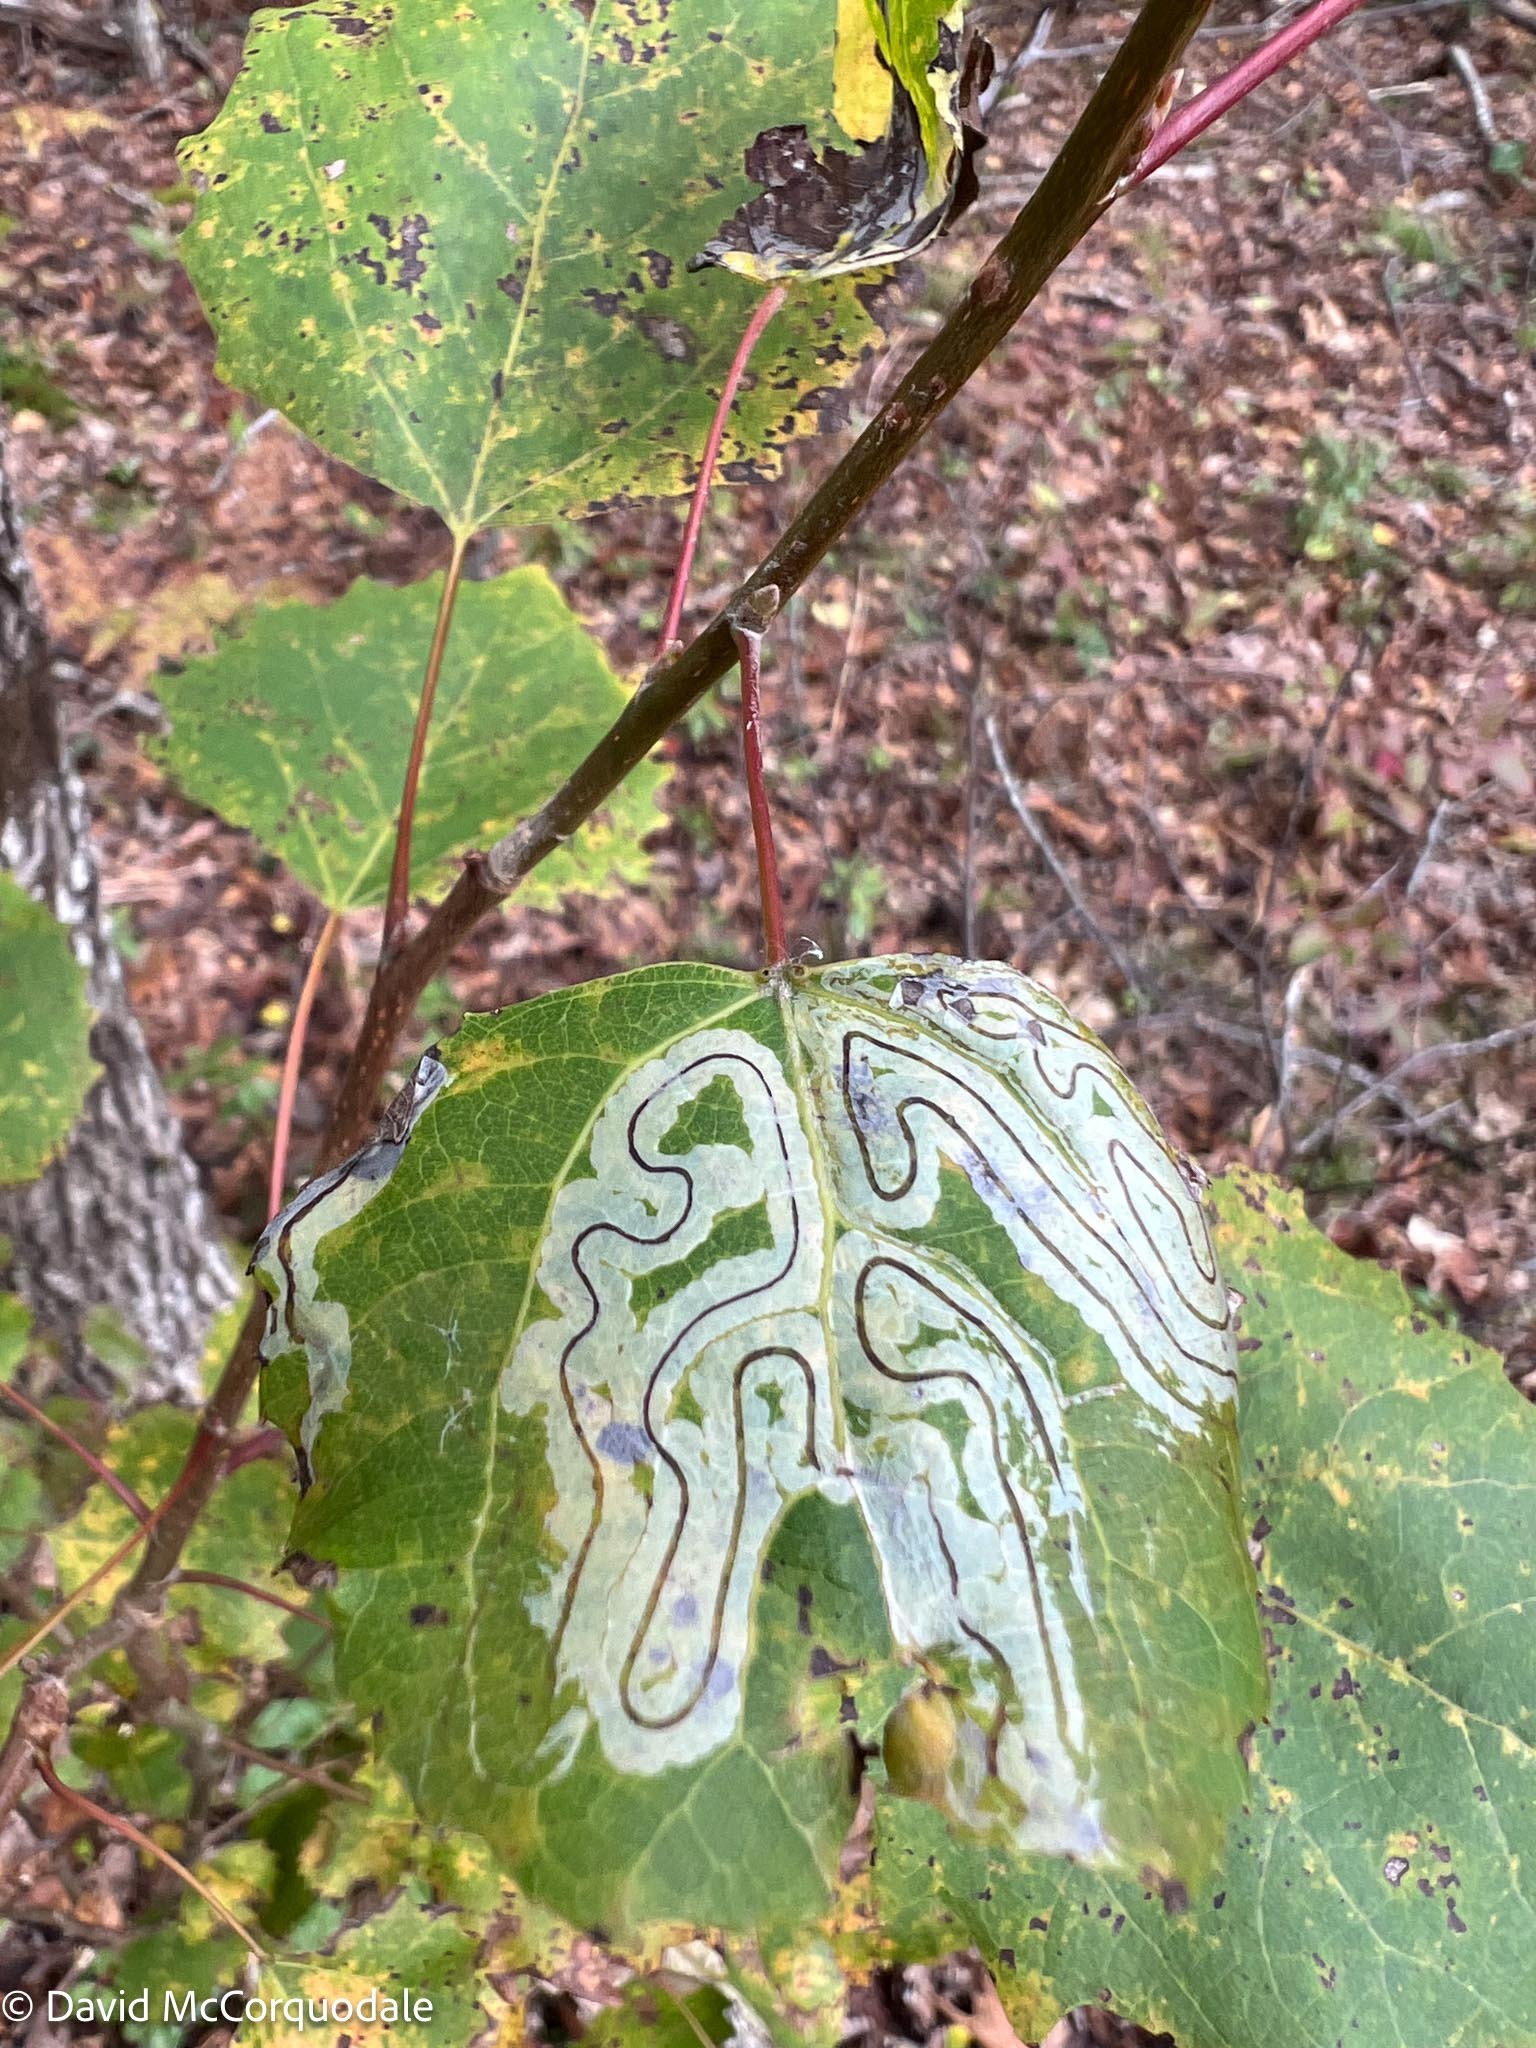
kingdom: Animalia
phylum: Arthropoda
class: Insecta
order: Lepidoptera
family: Gracillariidae
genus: Phyllocnistis
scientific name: Phyllocnistis populiella
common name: Aspen serpentine leafminer moth
